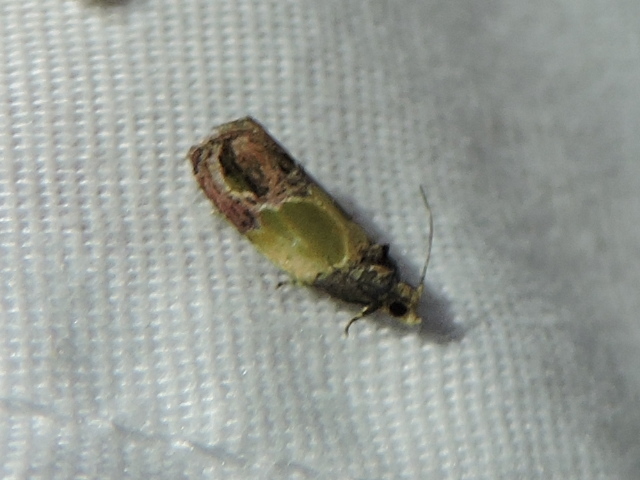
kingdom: Animalia
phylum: Arthropoda
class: Insecta
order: Lepidoptera
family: Tortricidae
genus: Eumarozia
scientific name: Eumarozia malachitana
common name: Sculptured moth
